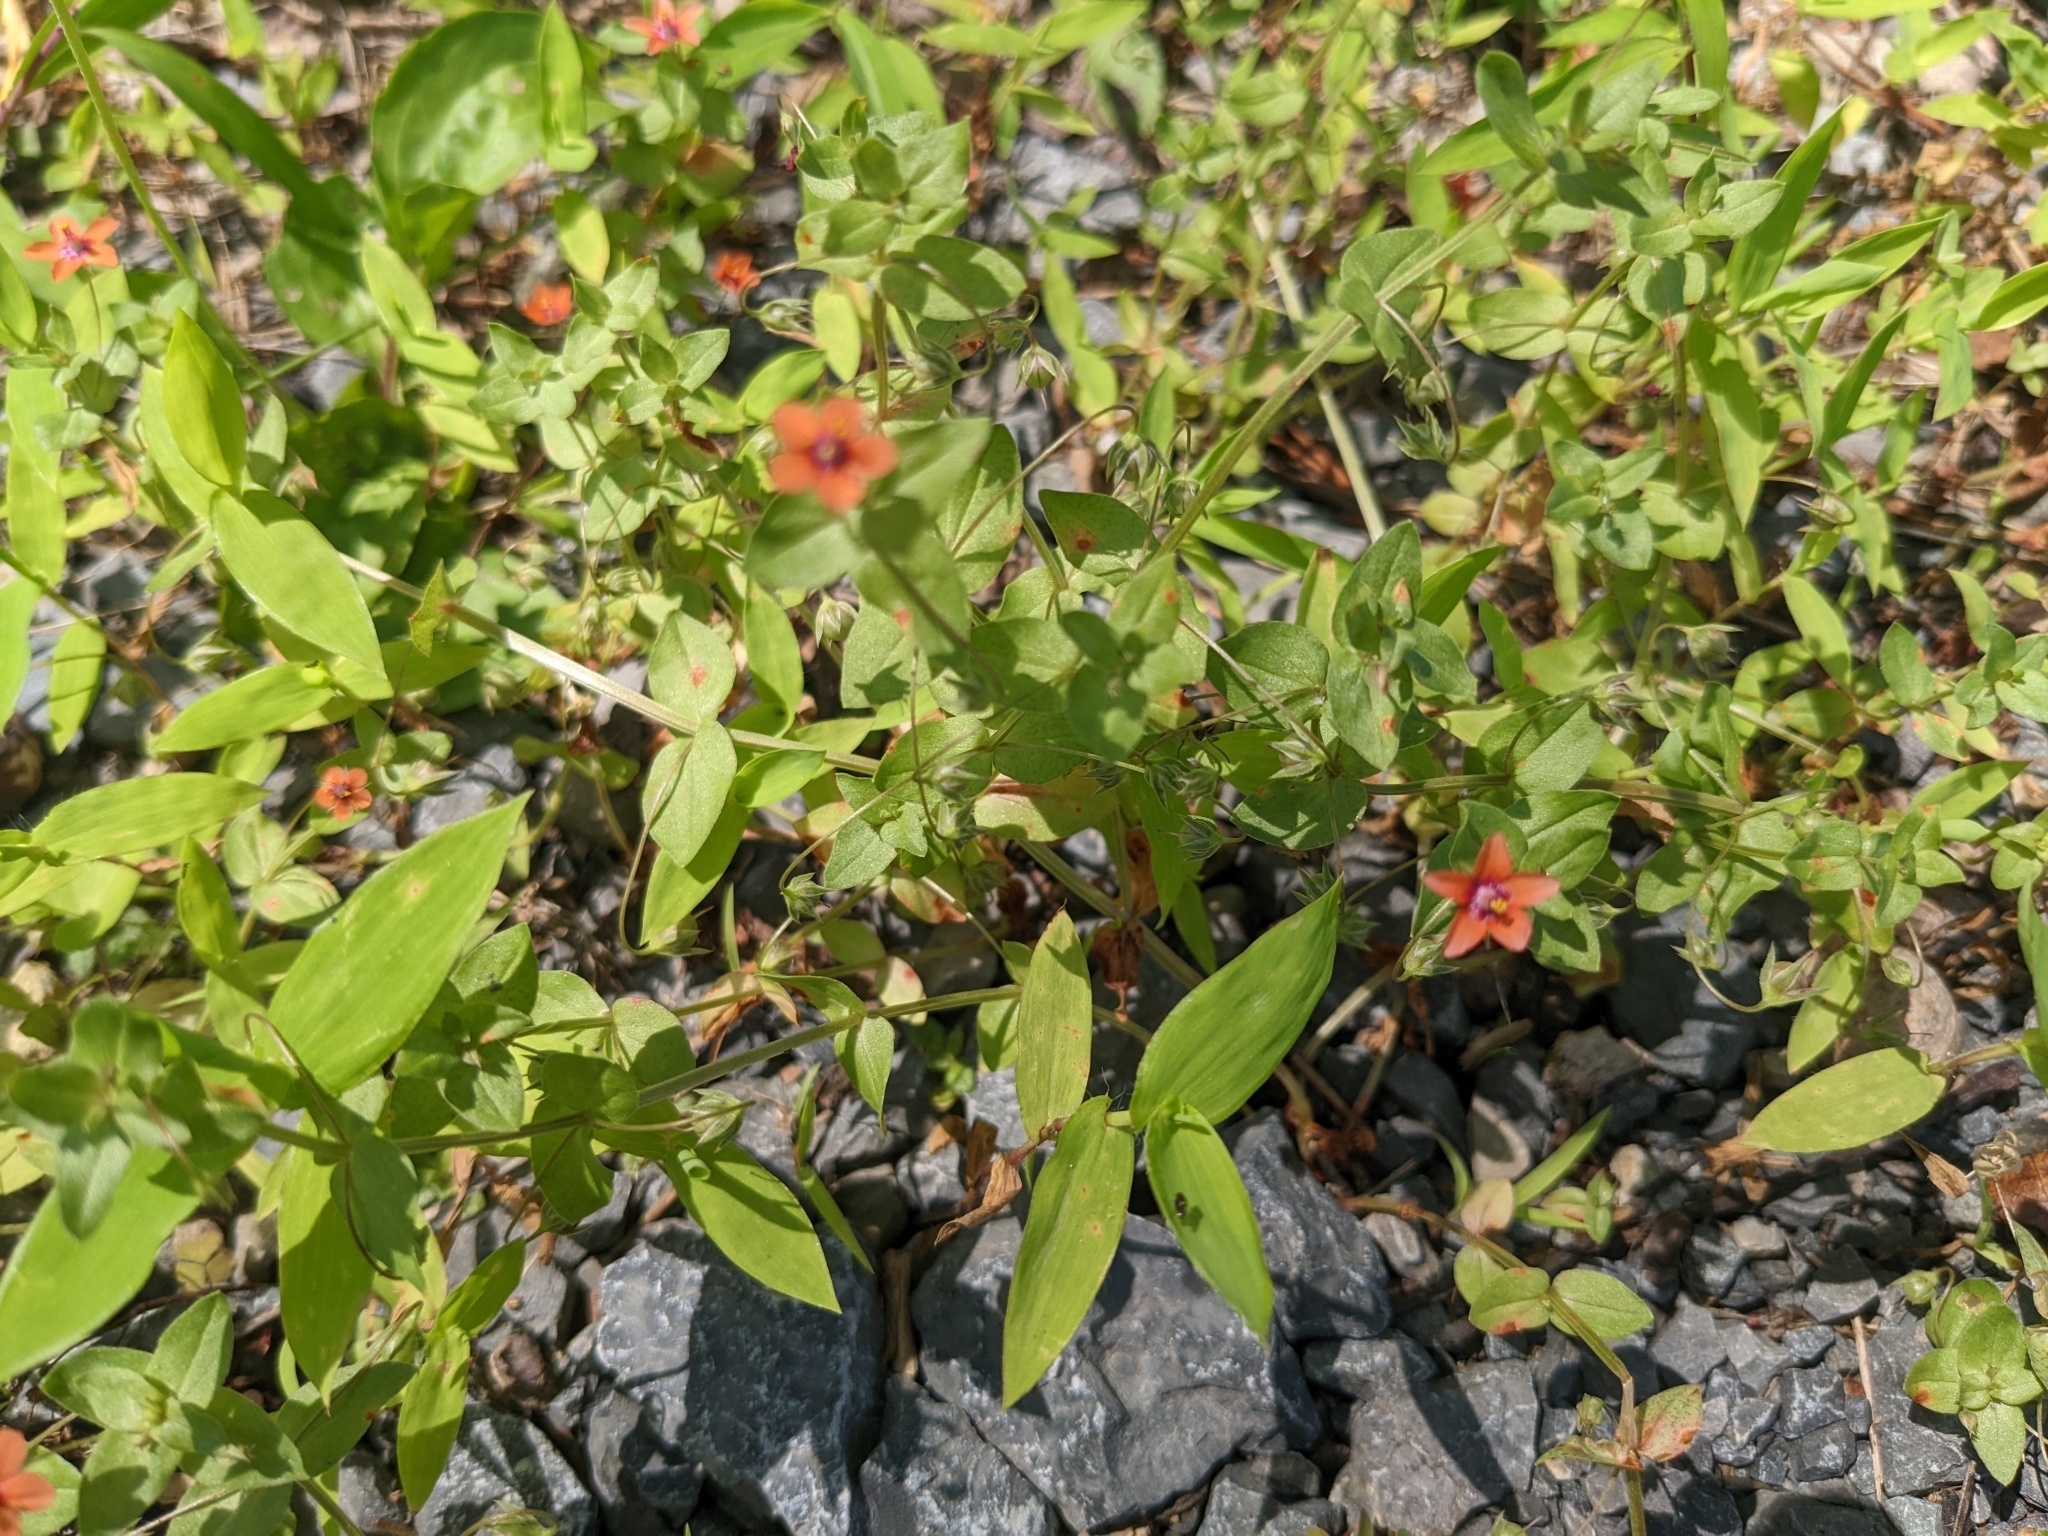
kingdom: Plantae
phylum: Tracheophyta
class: Magnoliopsida
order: Ericales
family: Primulaceae
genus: Lysimachia
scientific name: Lysimachia arvensis
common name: Scarlet pimpernel
